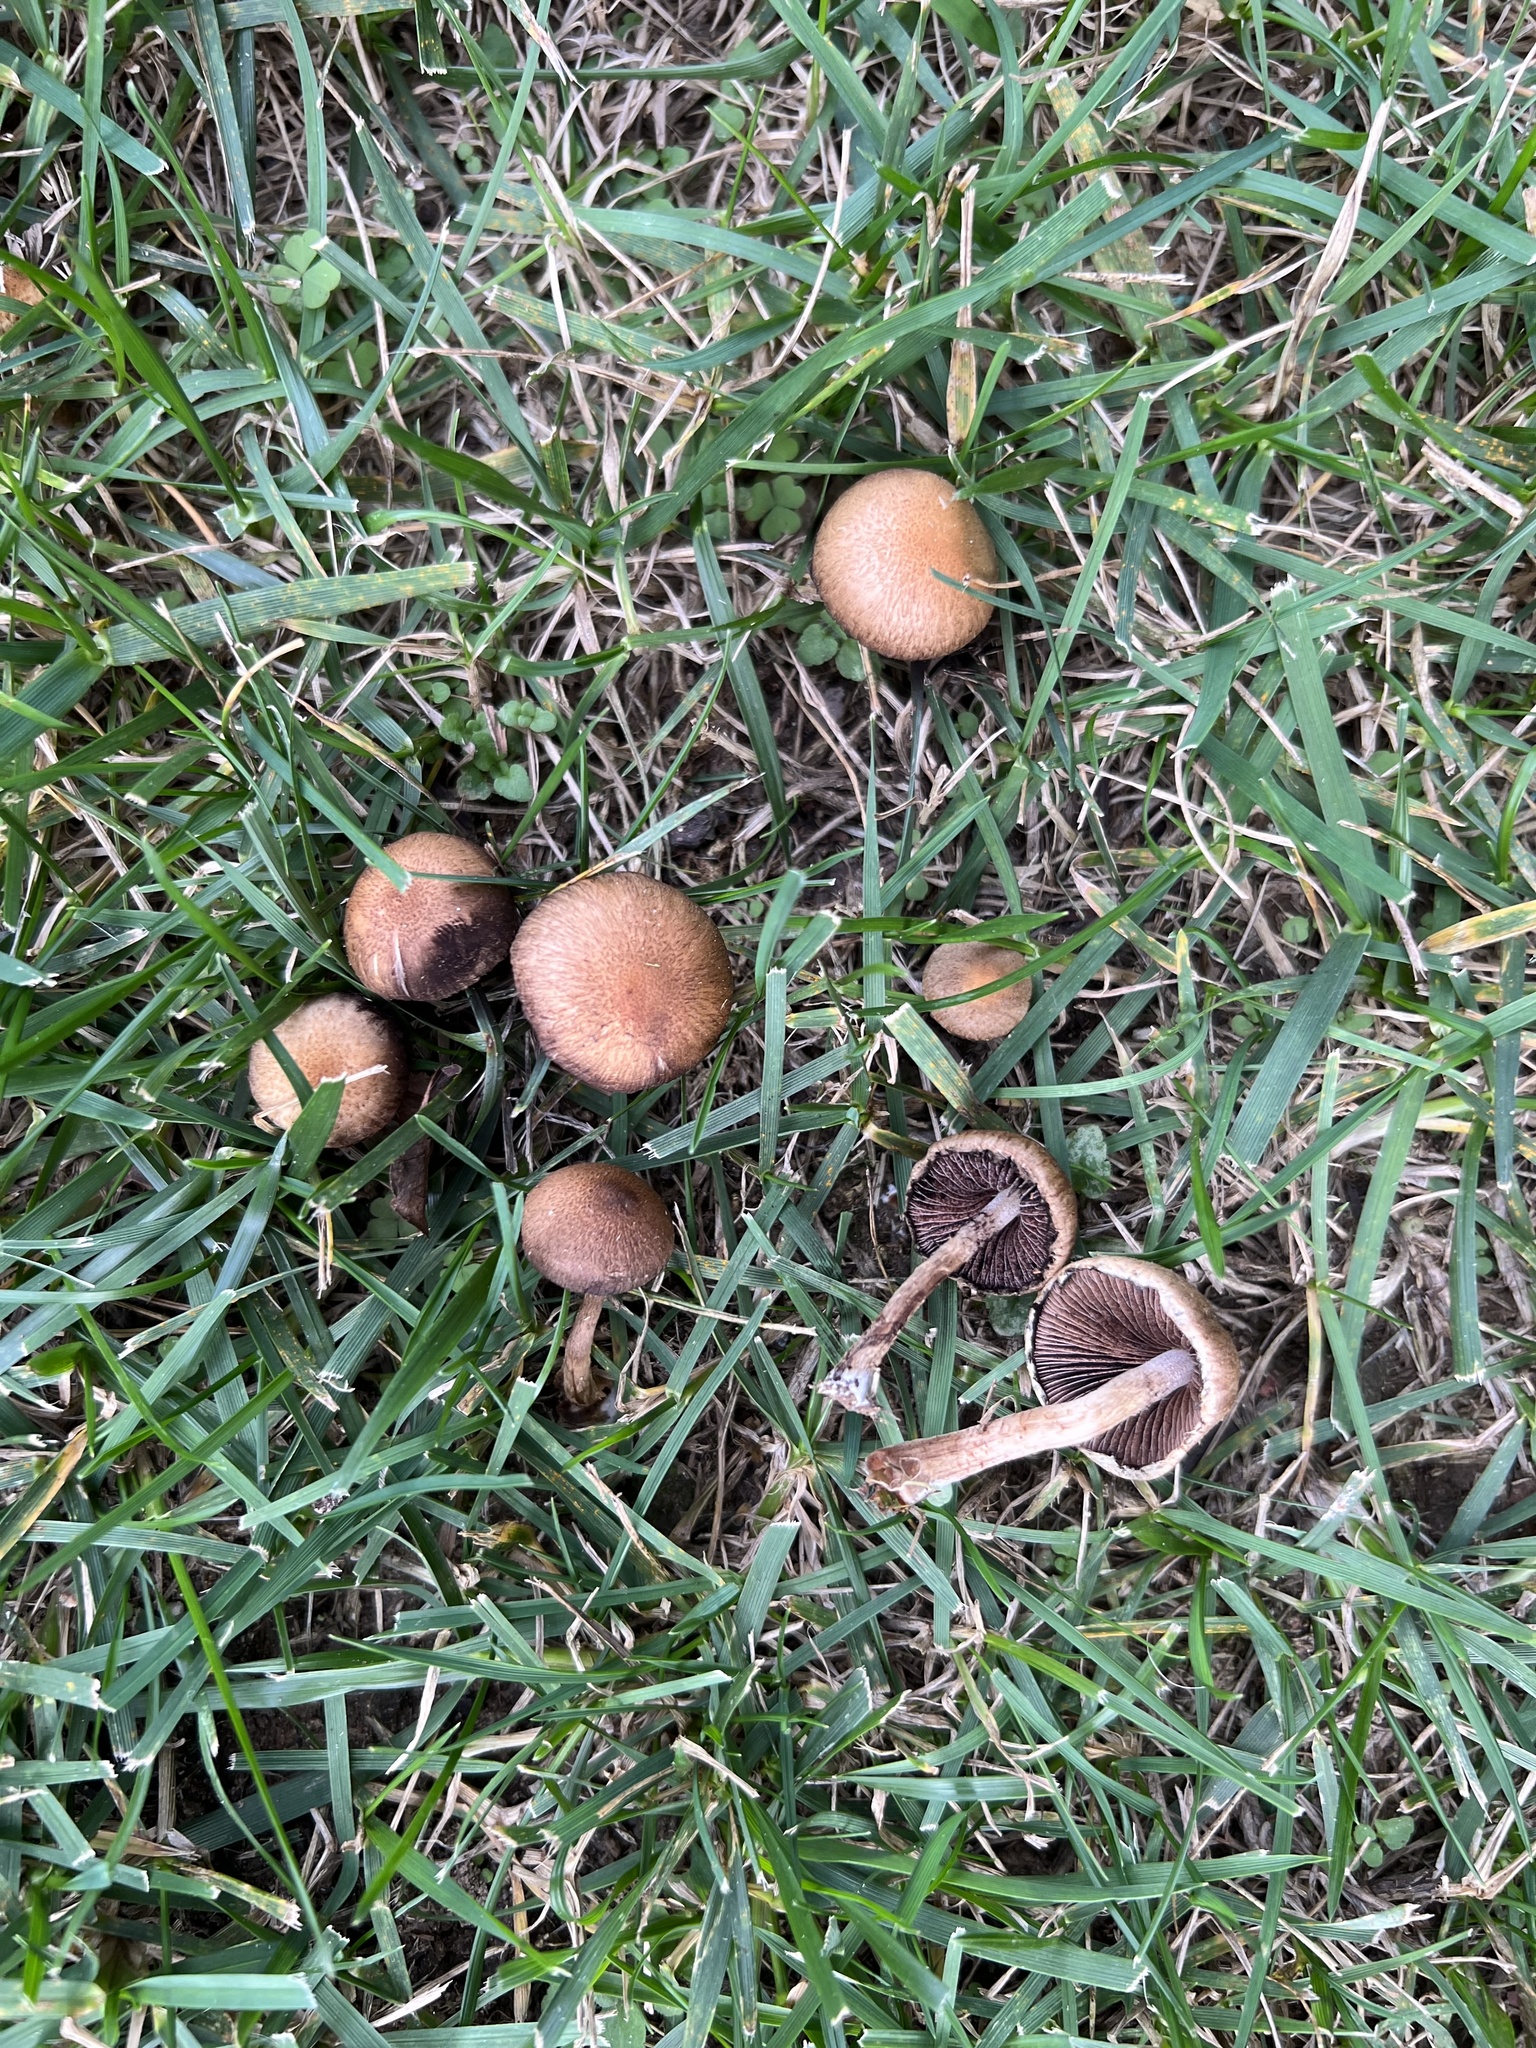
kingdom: Fungi
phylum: Basidiomycota
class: Agaricomycetes
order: Agaricales
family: Psathyrellaceae
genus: Lacrymaria
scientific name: Lacrymaria lacrymabunda
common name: Weeping widow
